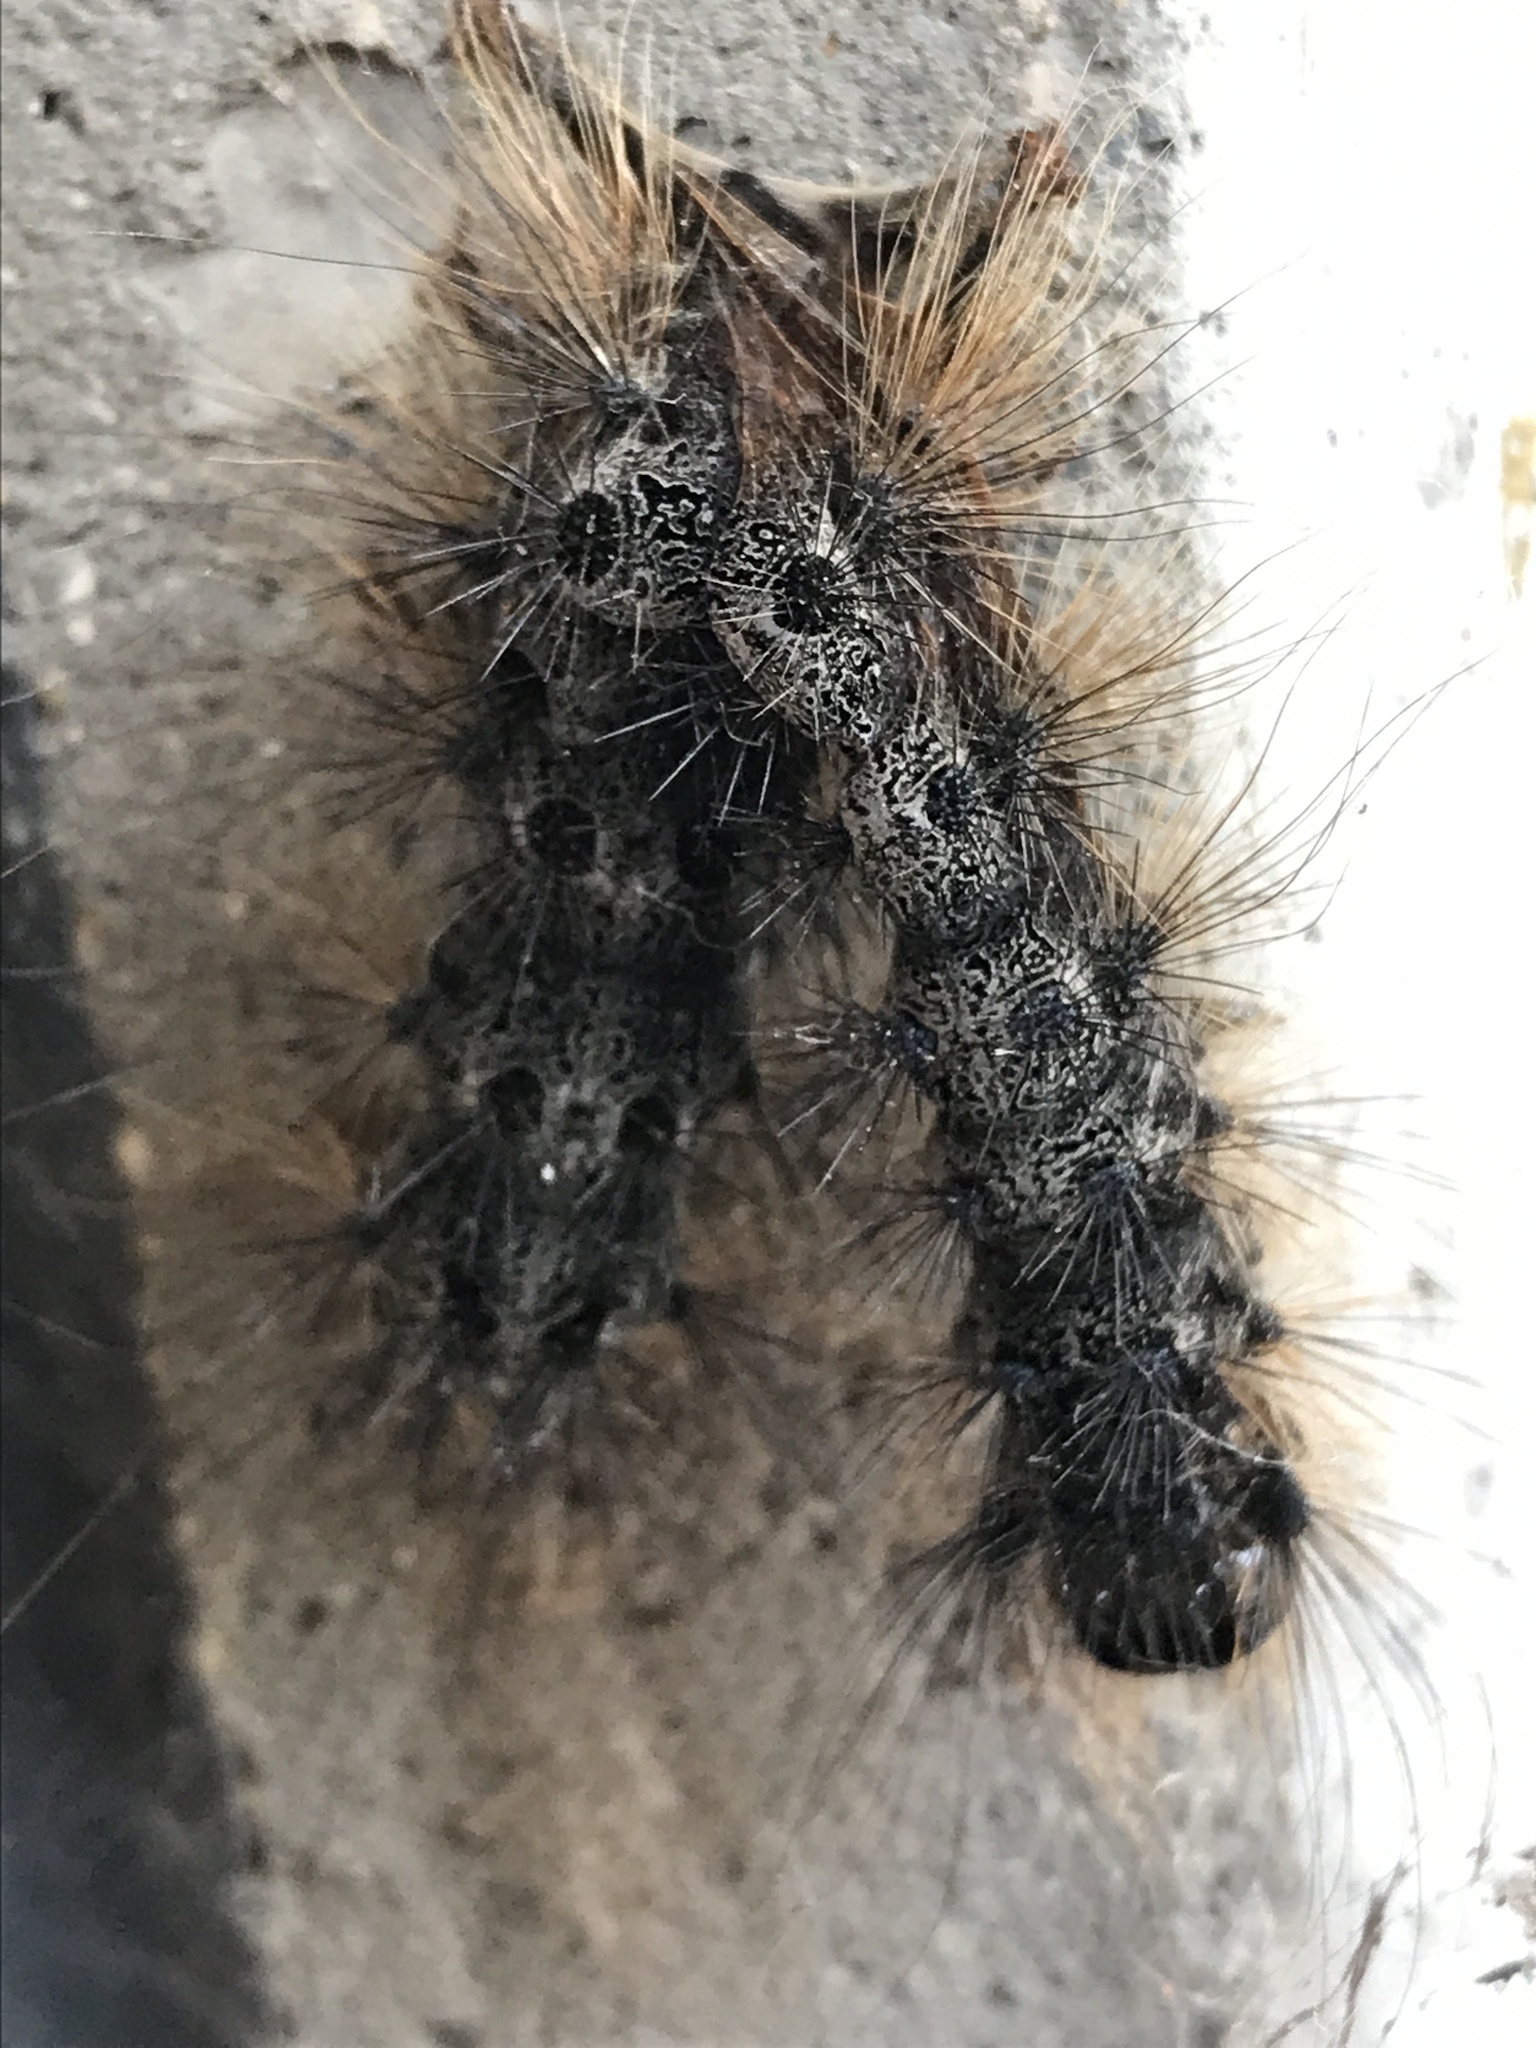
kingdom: Animalia
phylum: Arthropoda
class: Insecta
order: Lepidoptera
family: Erebidae
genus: Lymantria
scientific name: Lymantria dispar
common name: Gypsy moth
